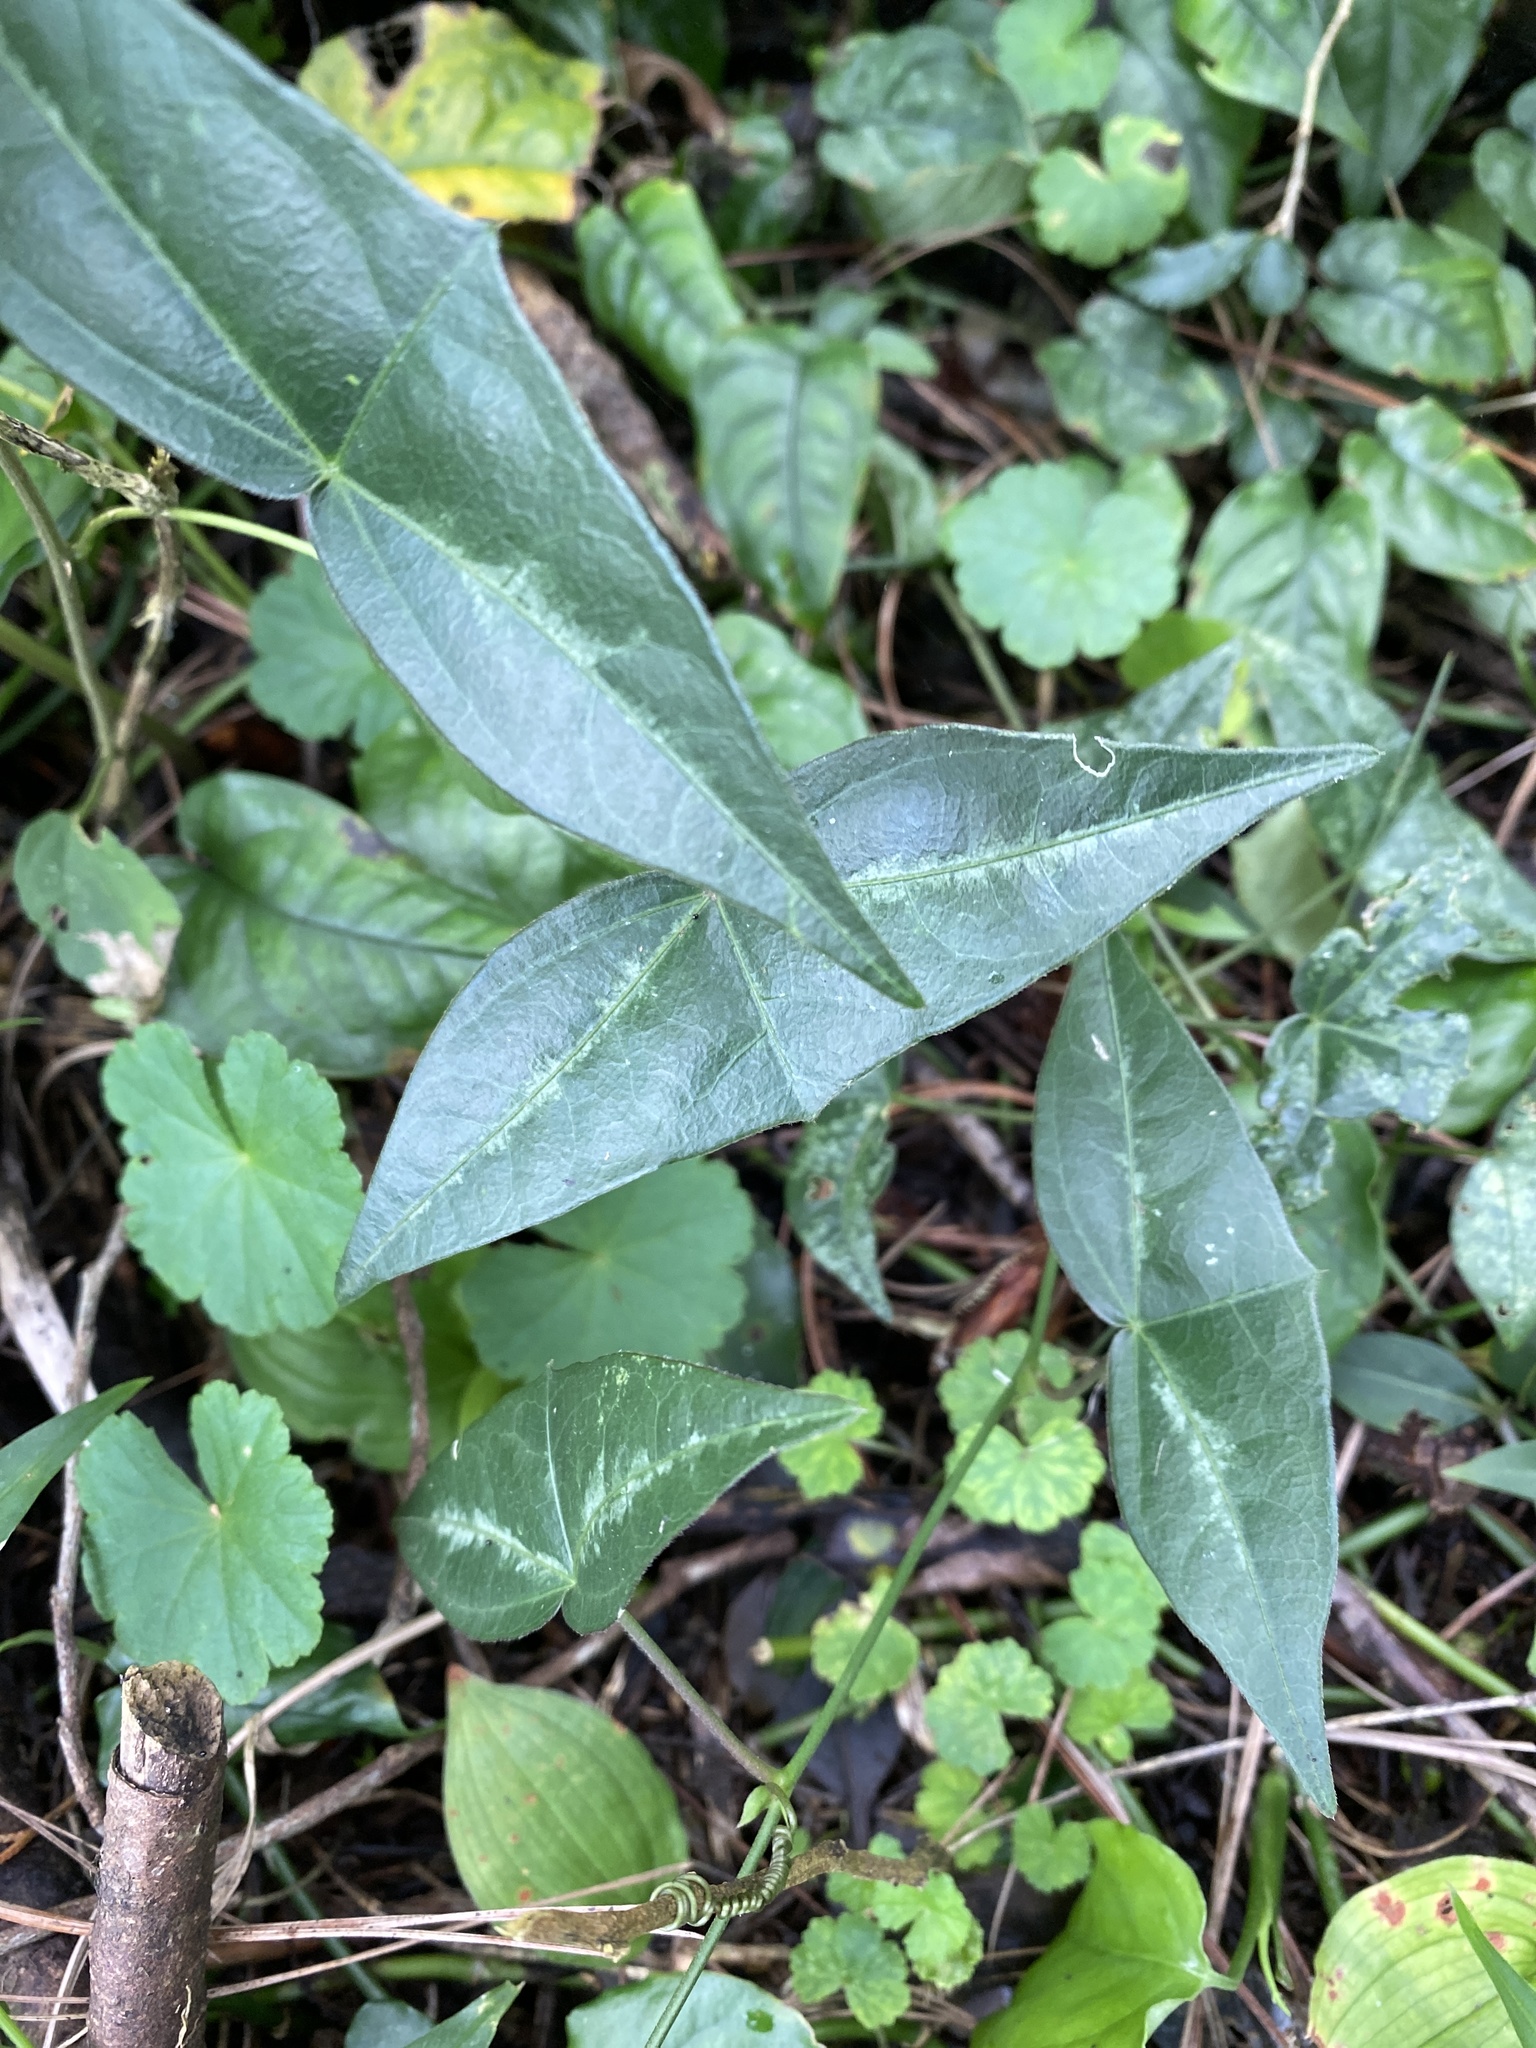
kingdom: Plantae
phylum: Tracheophyta
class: Magnoliopsida
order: Malpighiales
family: Passifloraceae
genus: Passiflora
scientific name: Passiflora eglandulosa
